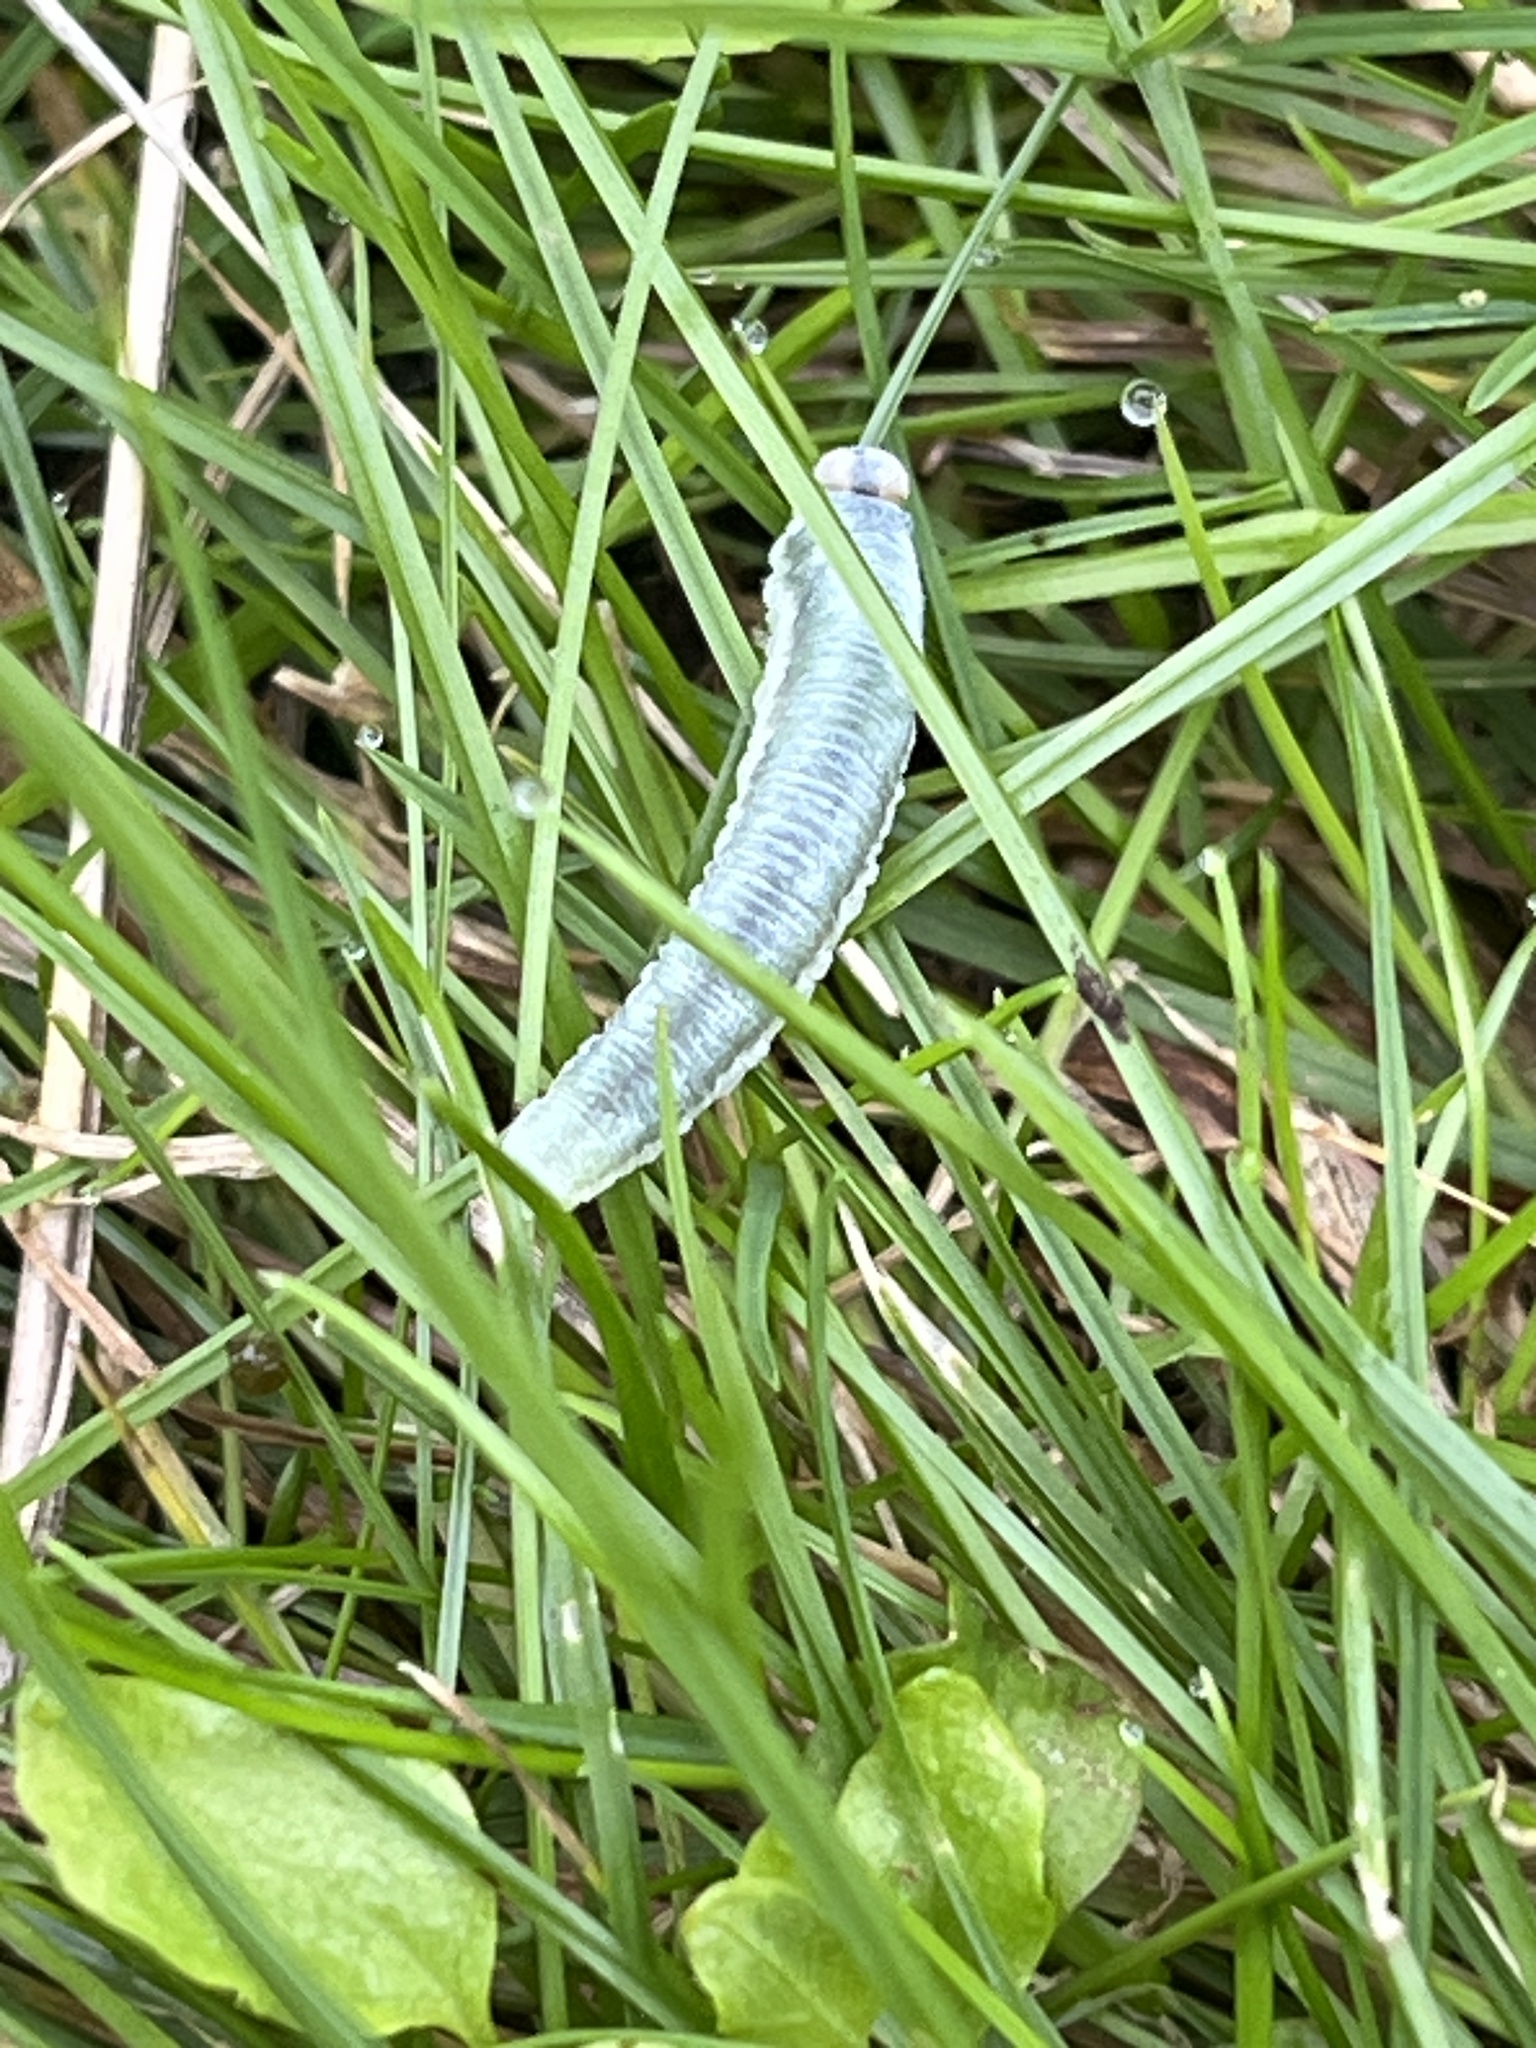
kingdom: Animalia
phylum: Arthropoda
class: Insecta
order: Hymenoptera
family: Tenthredinidae
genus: Monostegia
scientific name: Monostegia abdominalis
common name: Tenthredid wasp
